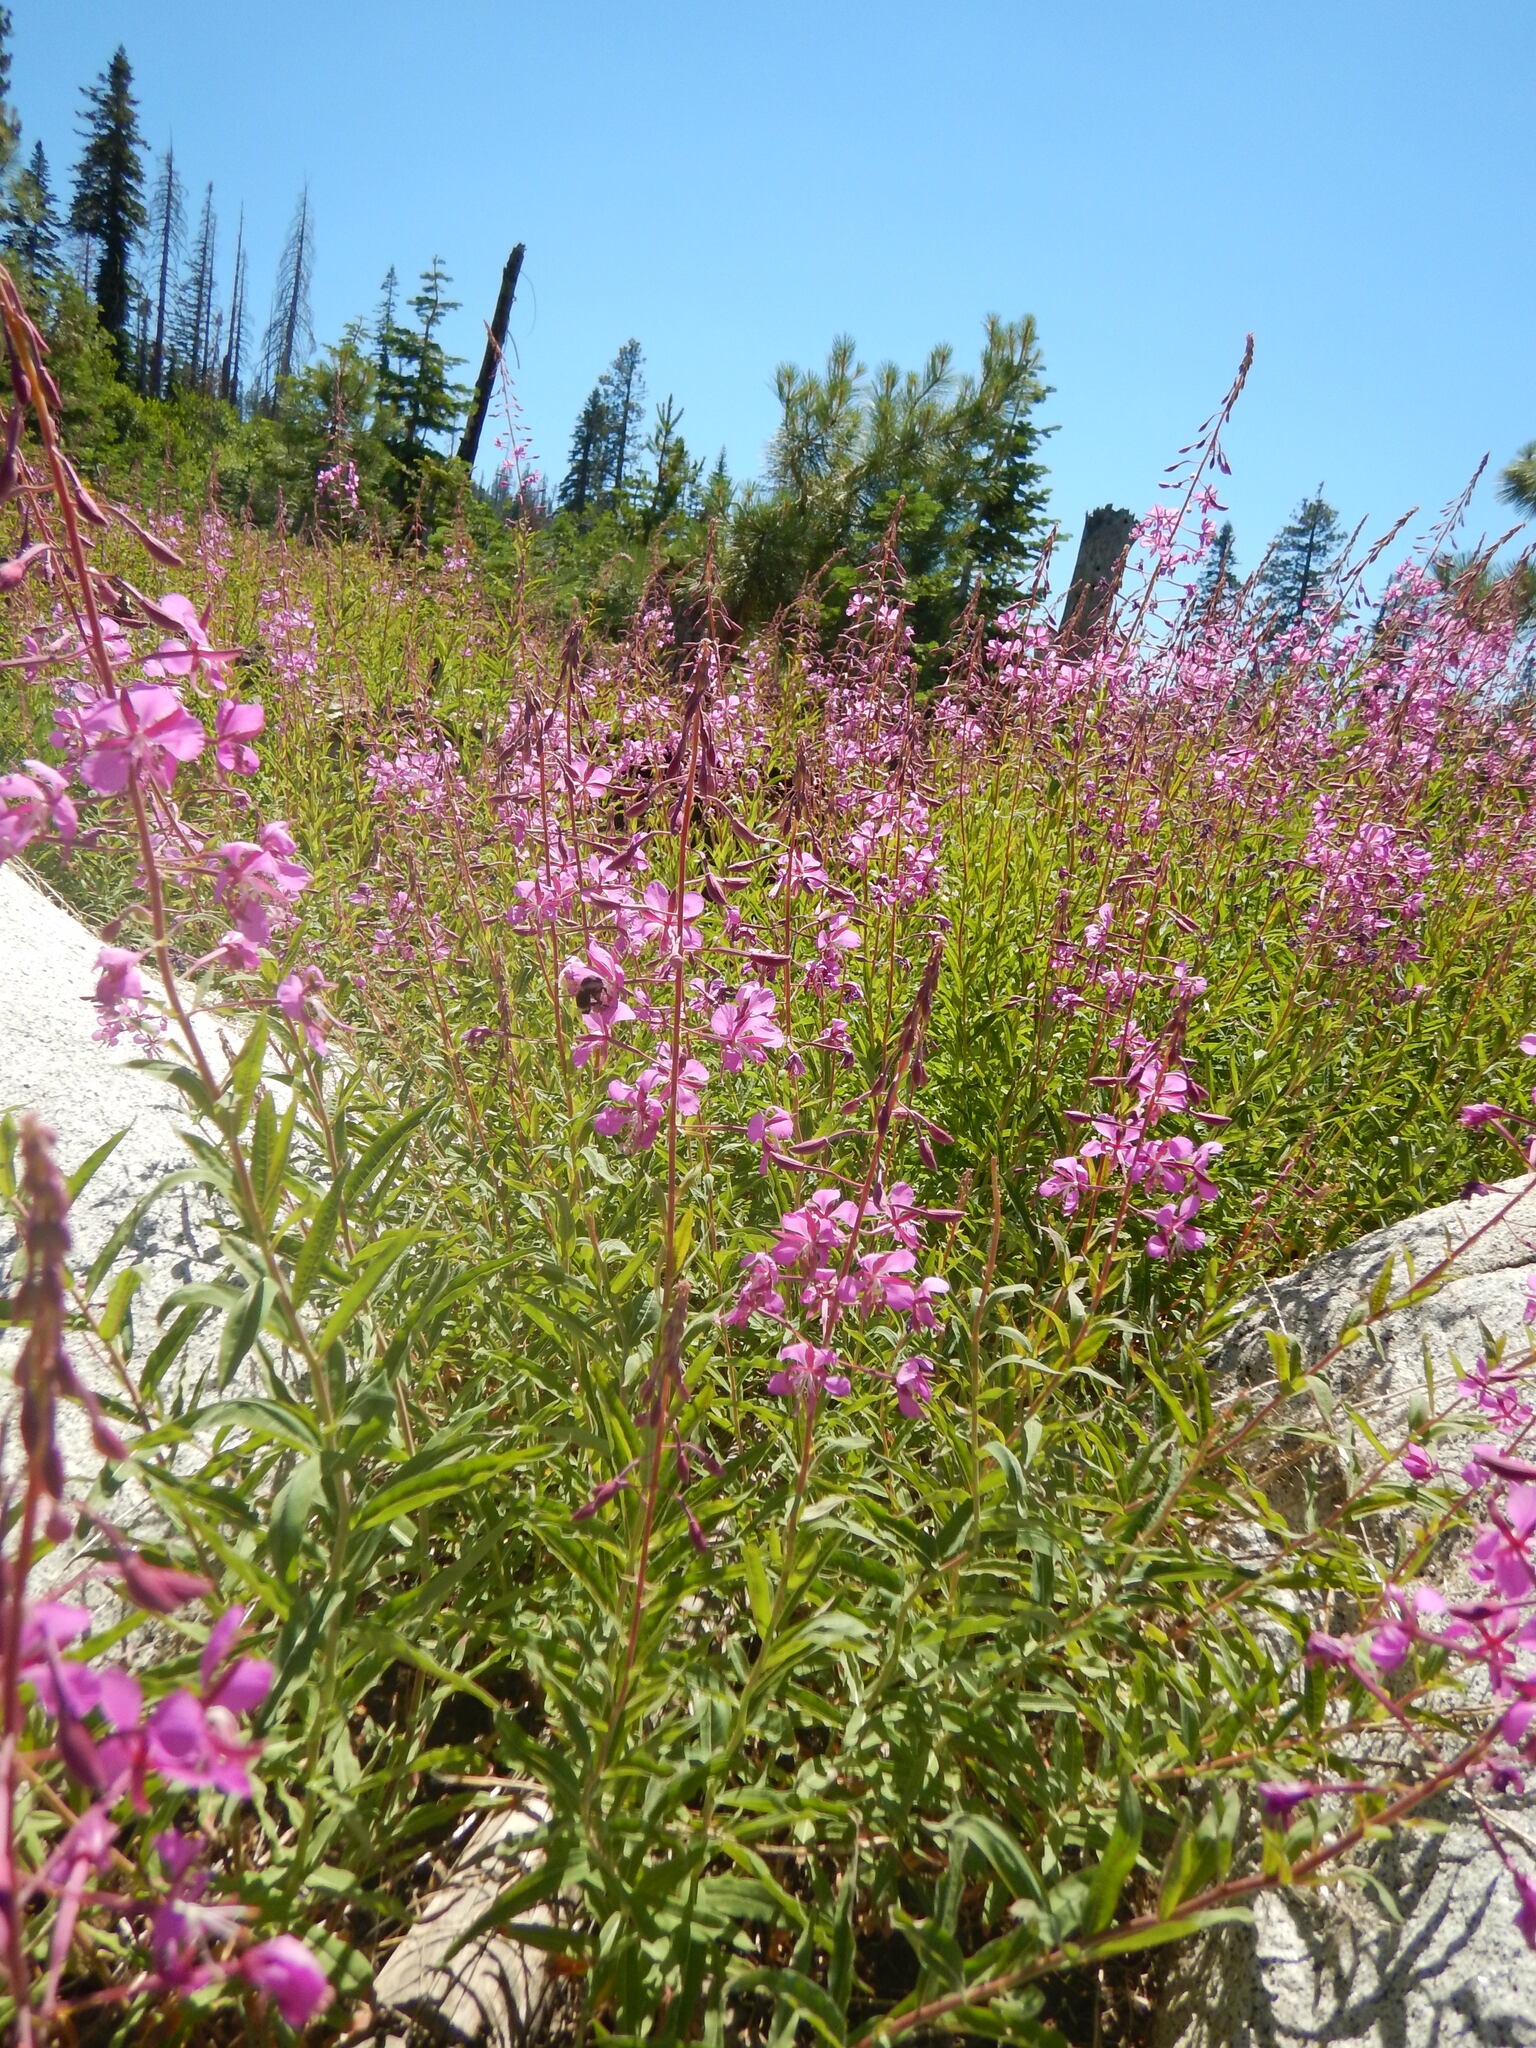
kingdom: Plantae
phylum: Tracheophyta
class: Magnoliopsida
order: Myrtales
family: Onagraceae
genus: Chamaenerion
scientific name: Chamaenerion angustifolium
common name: Fireweed
